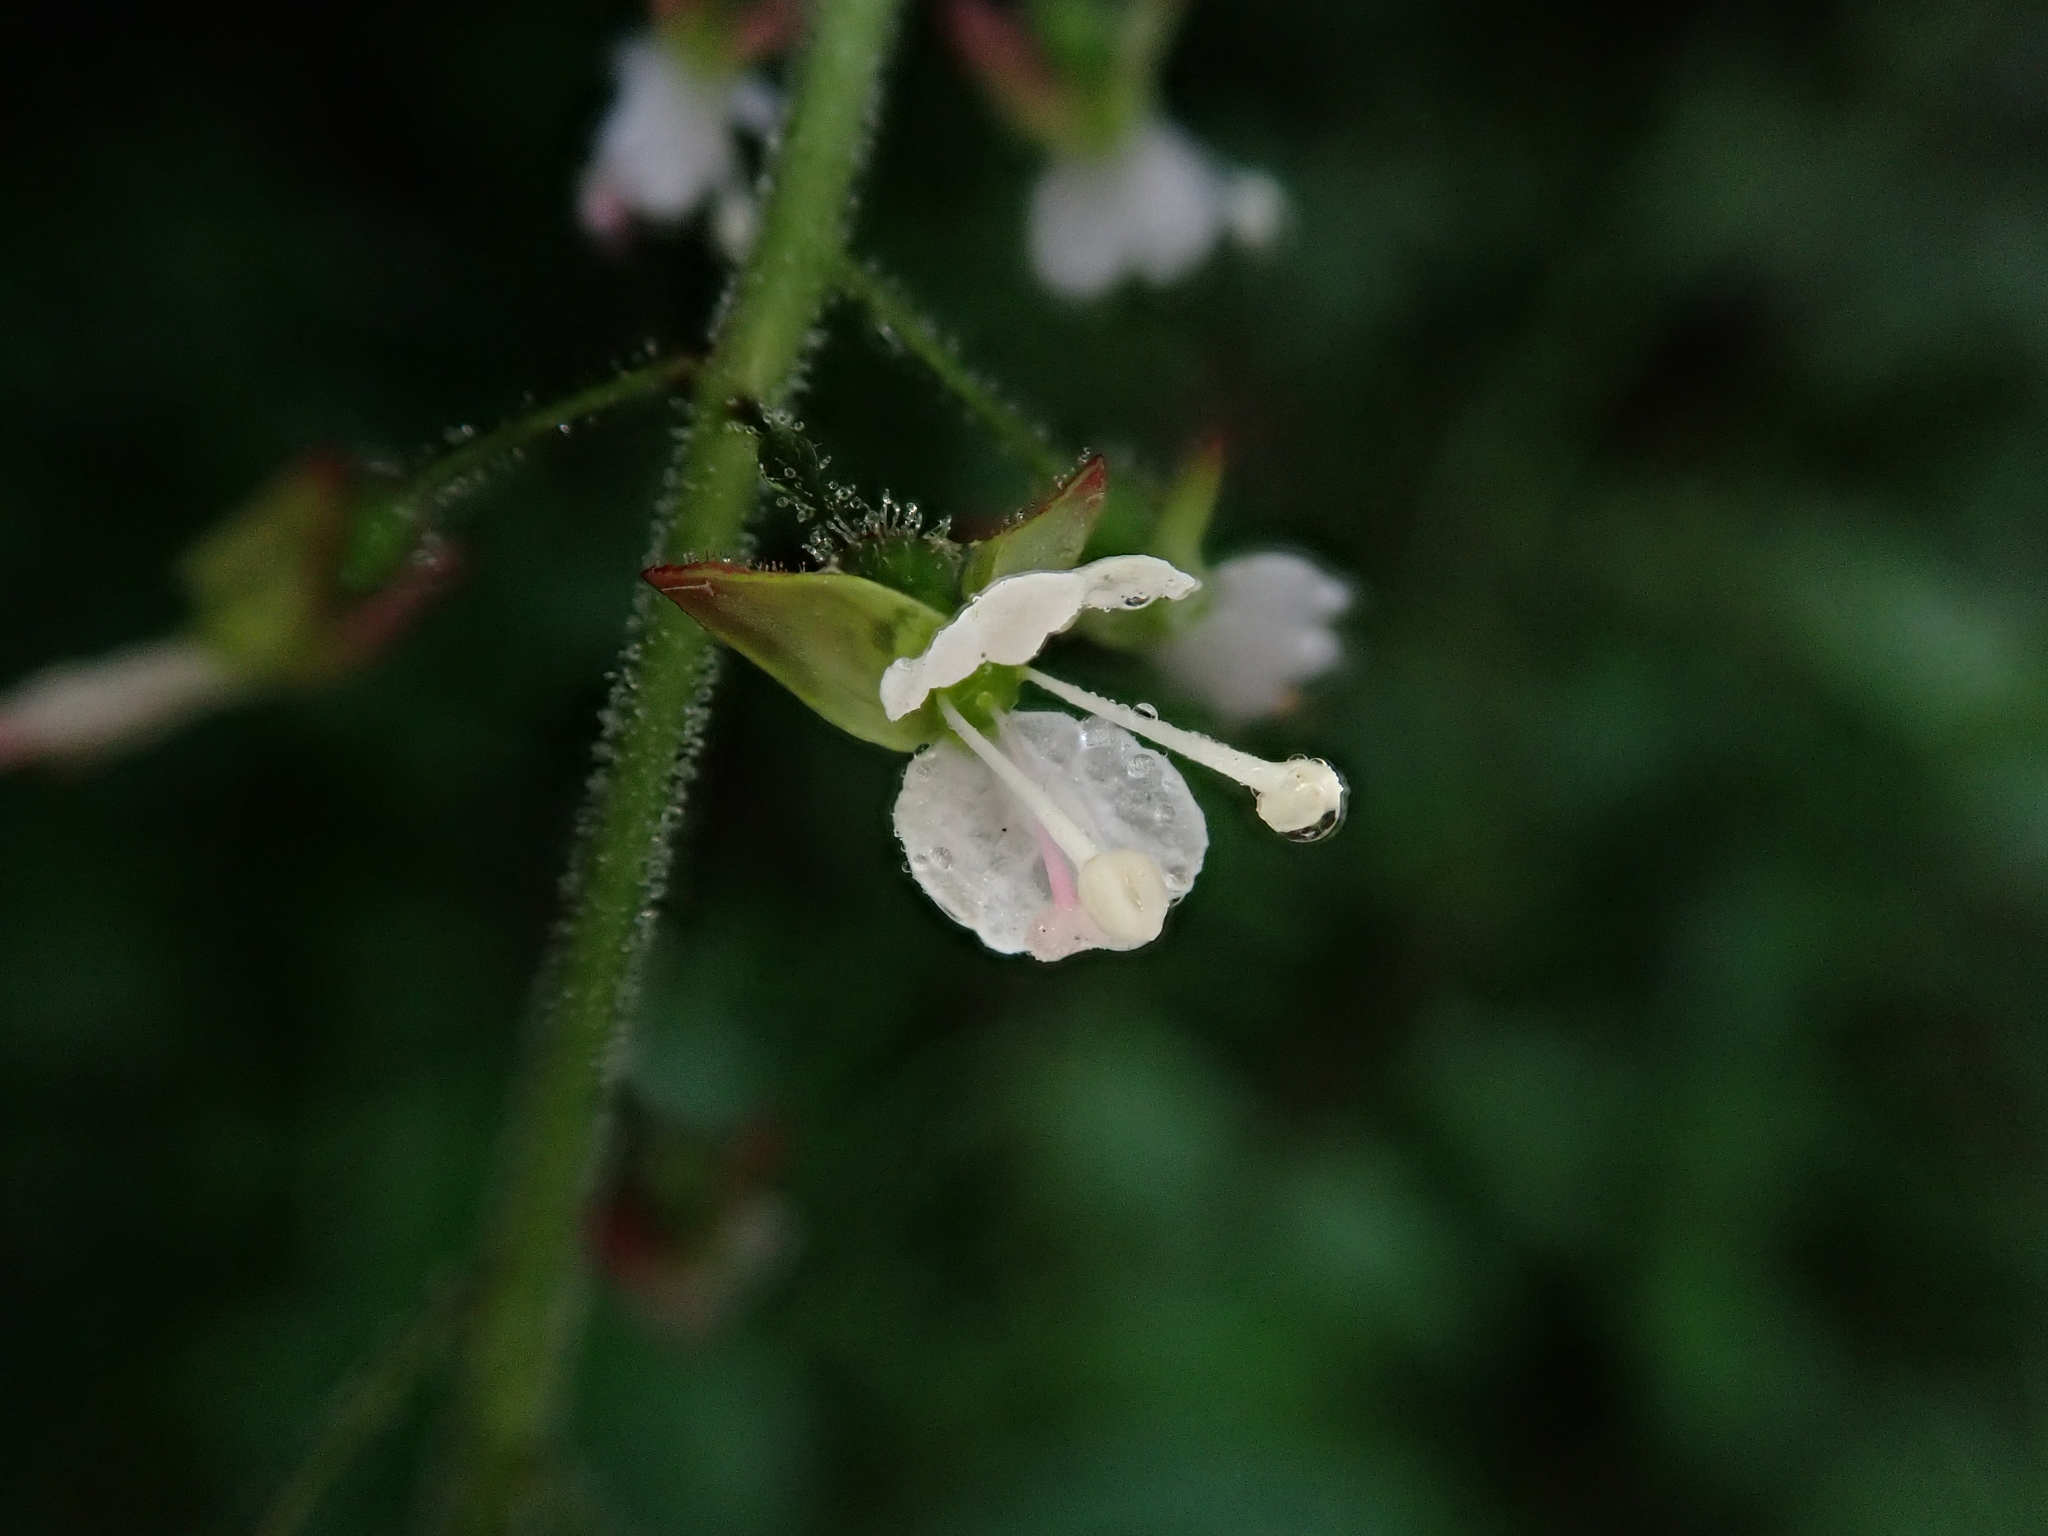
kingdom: Plantae
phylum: Tracheophyta
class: Magnoliopsida
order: Myrtales
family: Onagraceae
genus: Circaea
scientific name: Circaea lutetiana
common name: Enchanter's-nightshade
